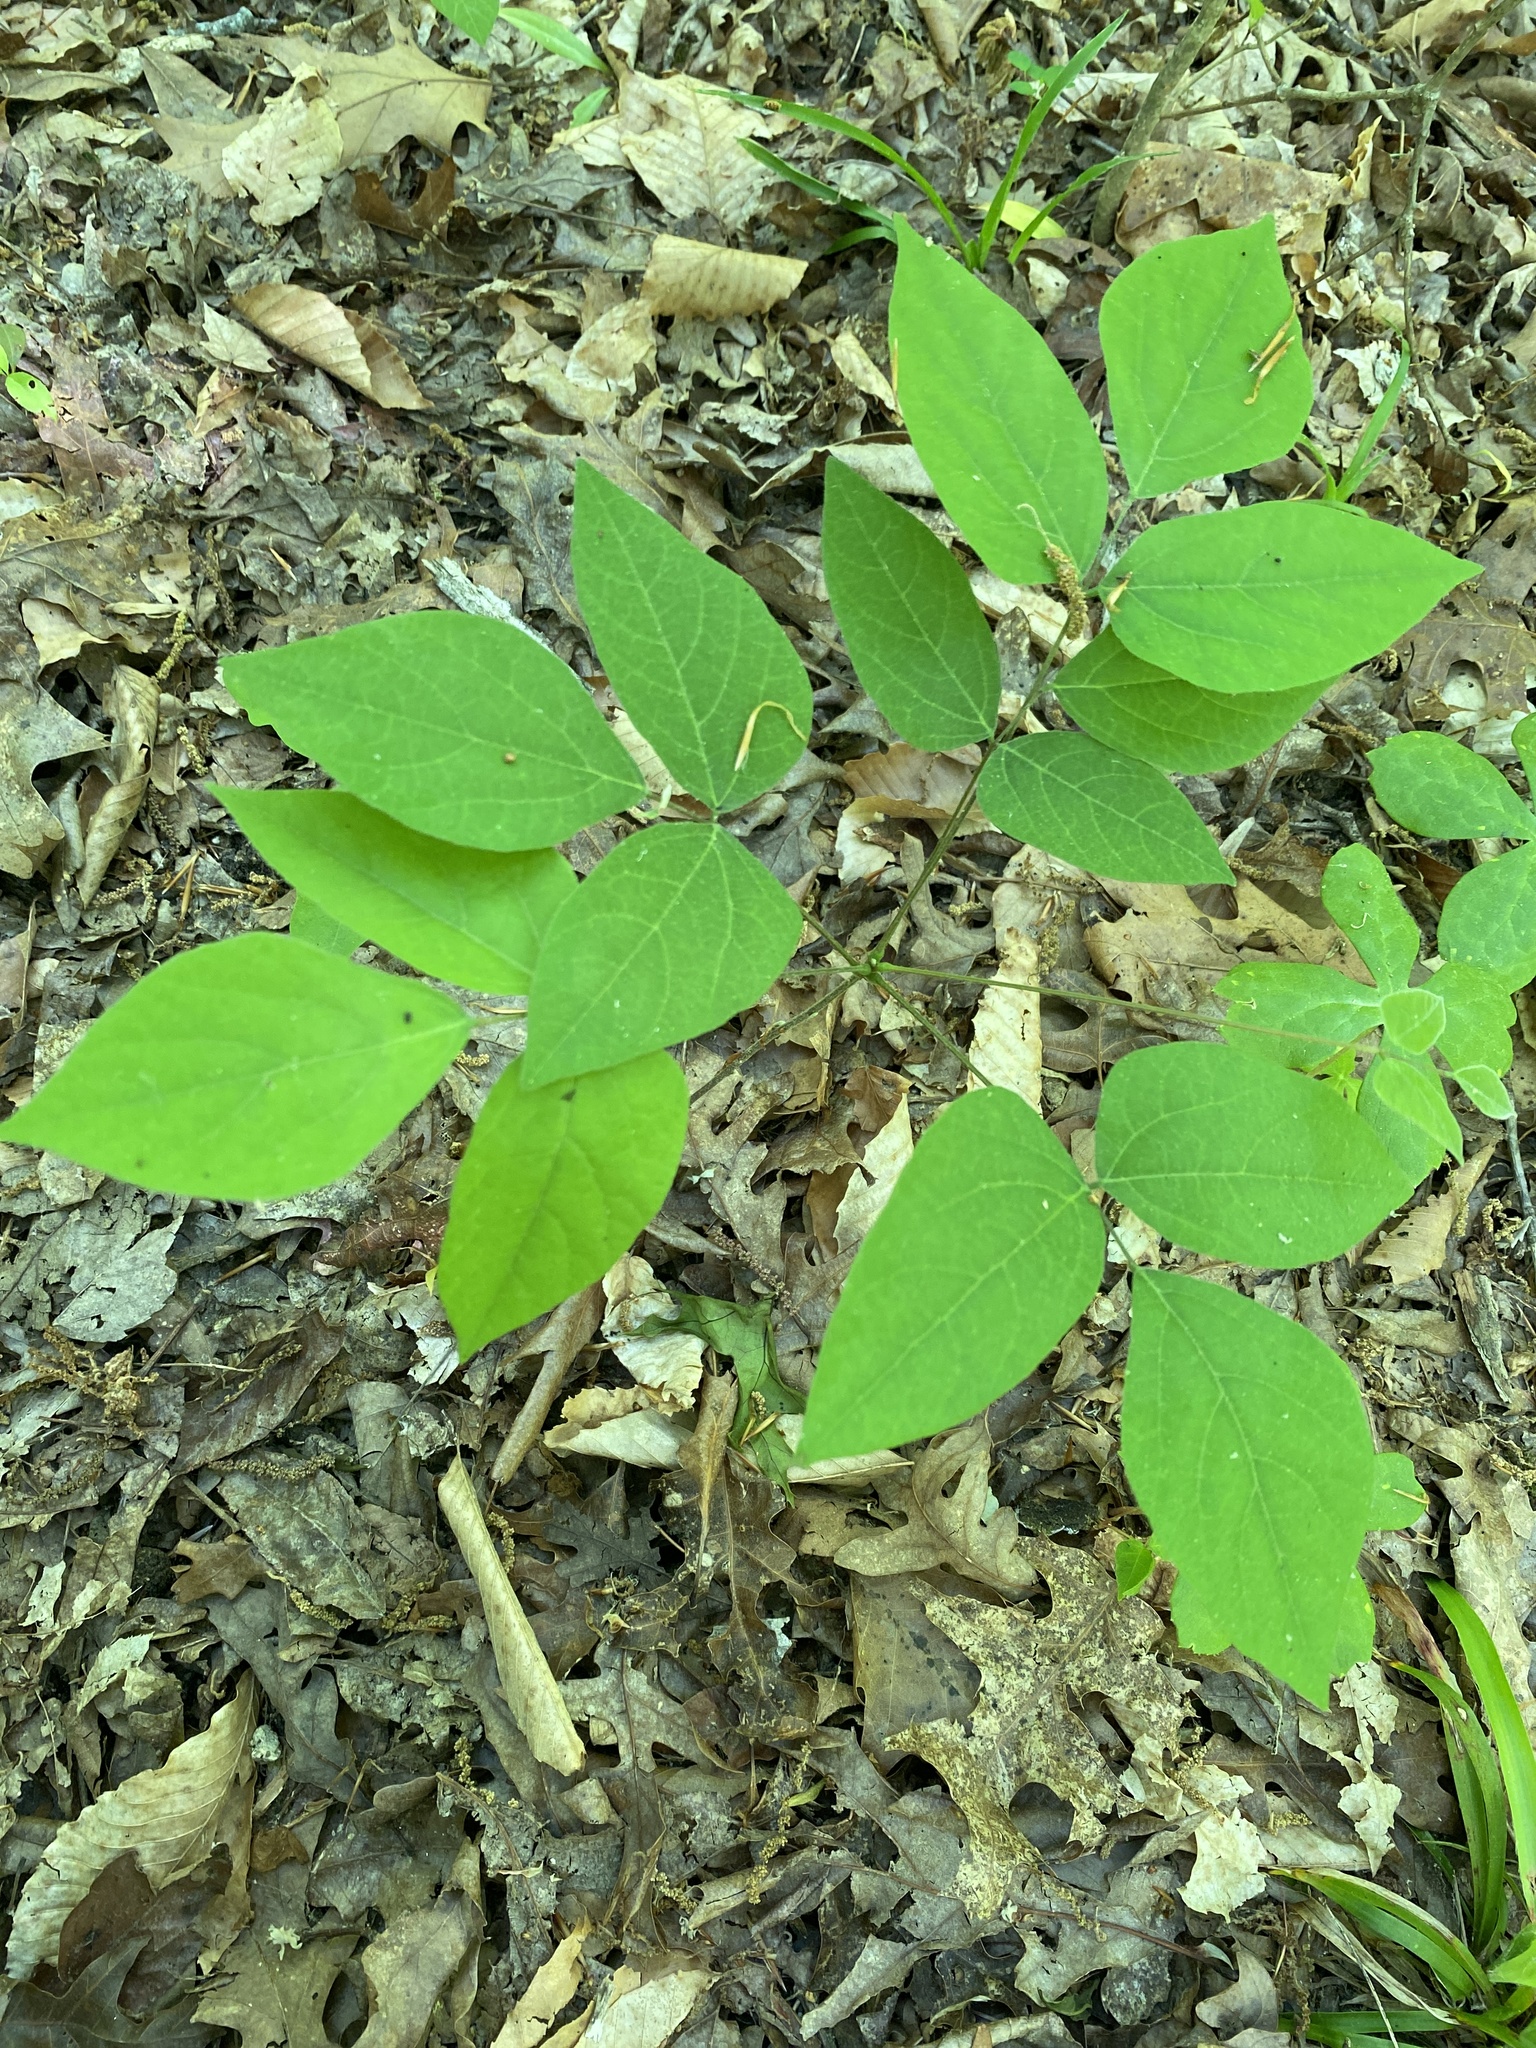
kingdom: Plantae
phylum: Tracheophyta
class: Magnoliopsida
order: Fabales
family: Fabaceae
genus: Hylodesmum
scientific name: Hylodesmum nudiflorum
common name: Bare-stemmed tick-trefoil
